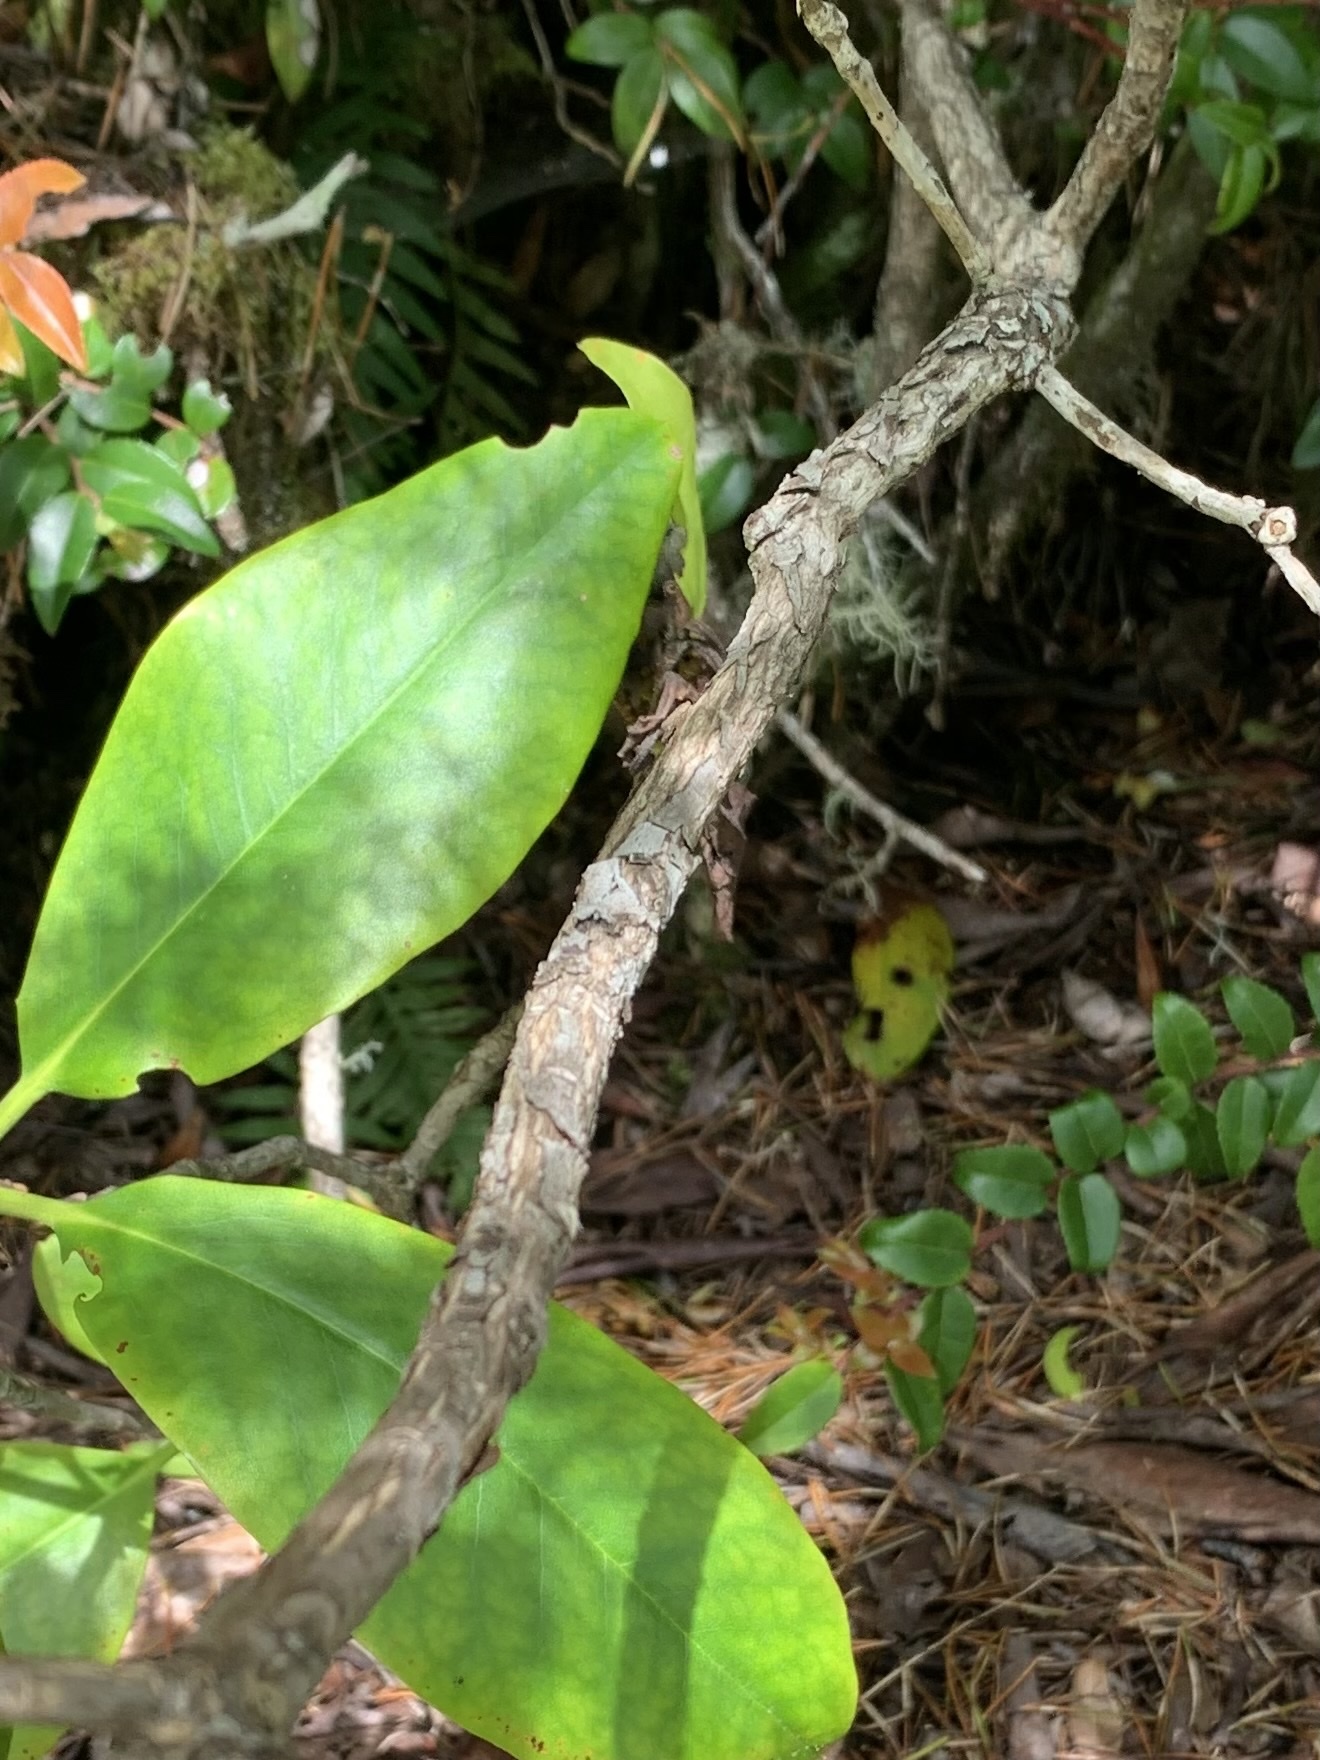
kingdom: Plantae
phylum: Tracheophyta
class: Magnoliopsida
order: Ericales
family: Ericaceae
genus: Rhododendron
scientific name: Rhododendron macrophyllum
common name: California rose bay
